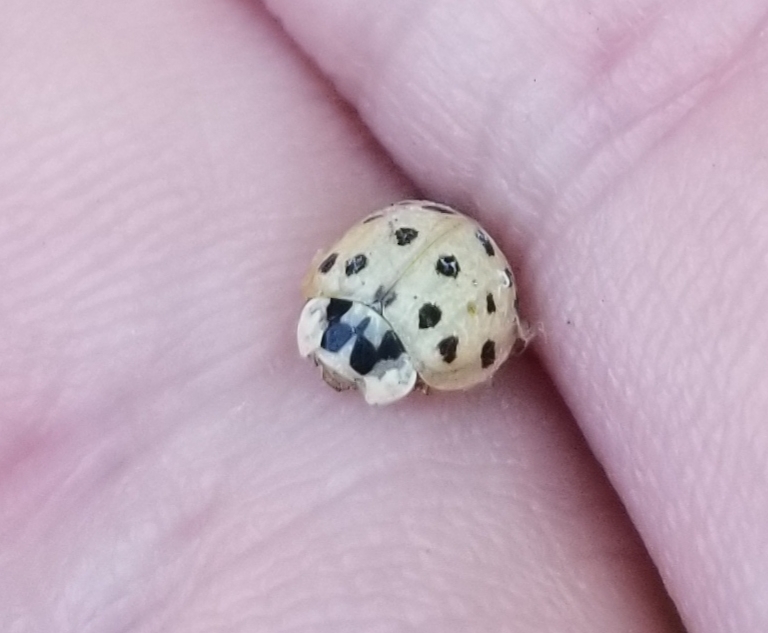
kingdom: Animalia
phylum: Arthropoda
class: Insecta
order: Coleoptera
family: Coccinellidae
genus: Harmonia
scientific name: Harmonia axyridis
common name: Harlequin ladybird
